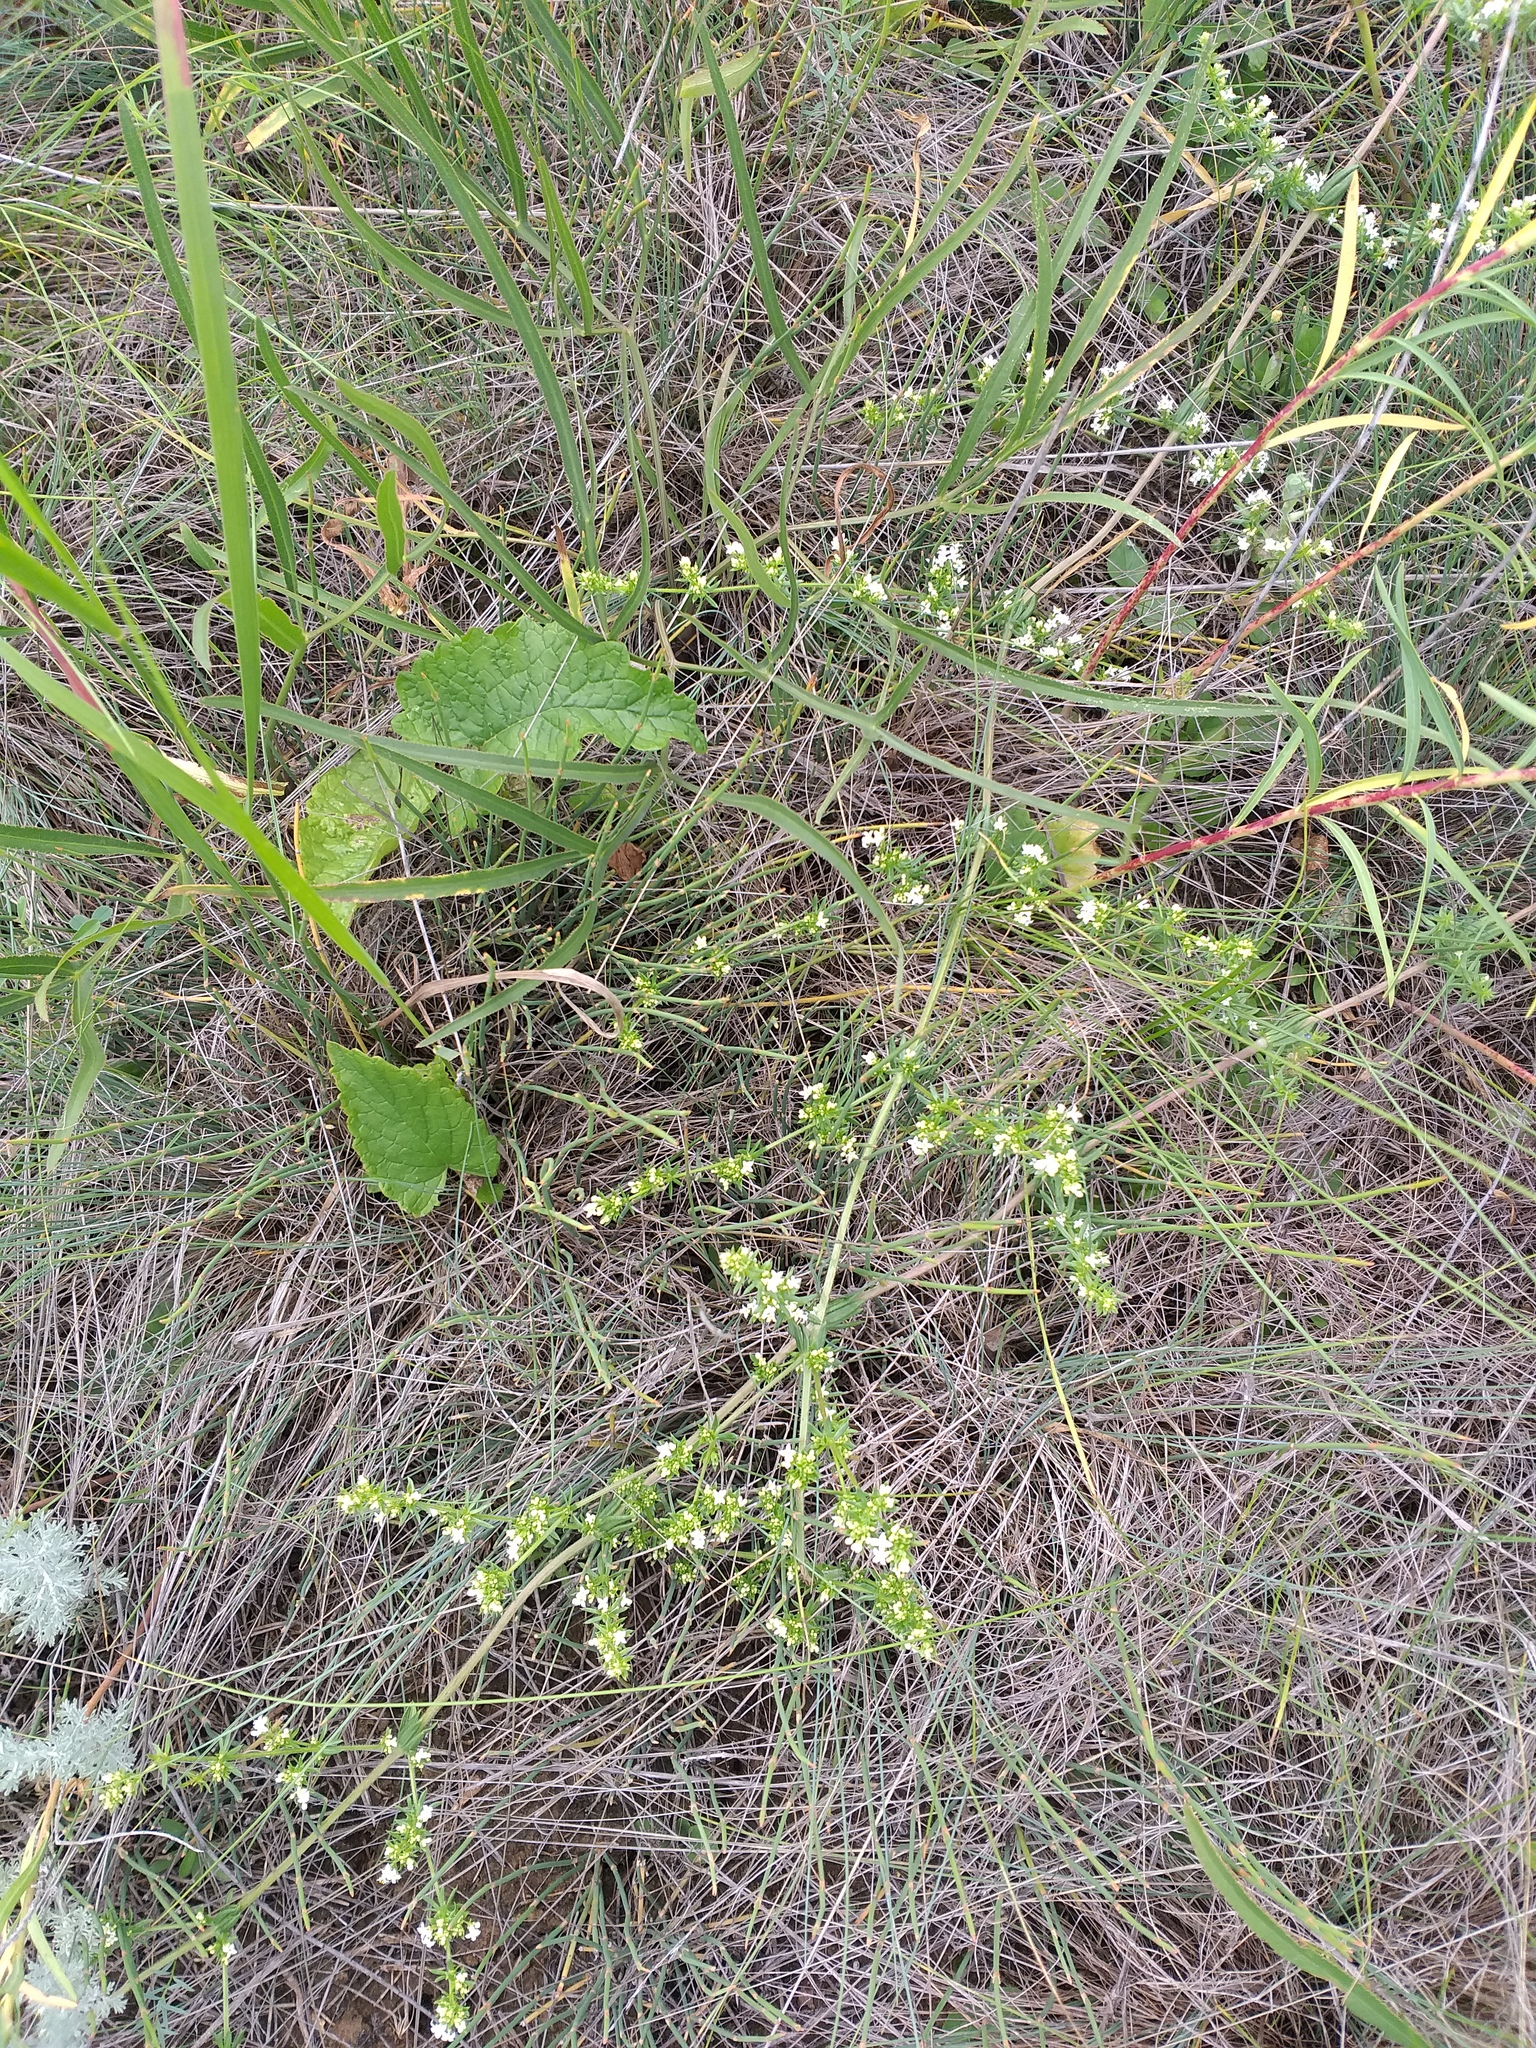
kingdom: Plantae
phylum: Tracheophyta
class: Magnoliopsida
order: Gentianales
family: Rubiaceae
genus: Galium
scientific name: Galium humifusum
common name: Spreading bedstraw
